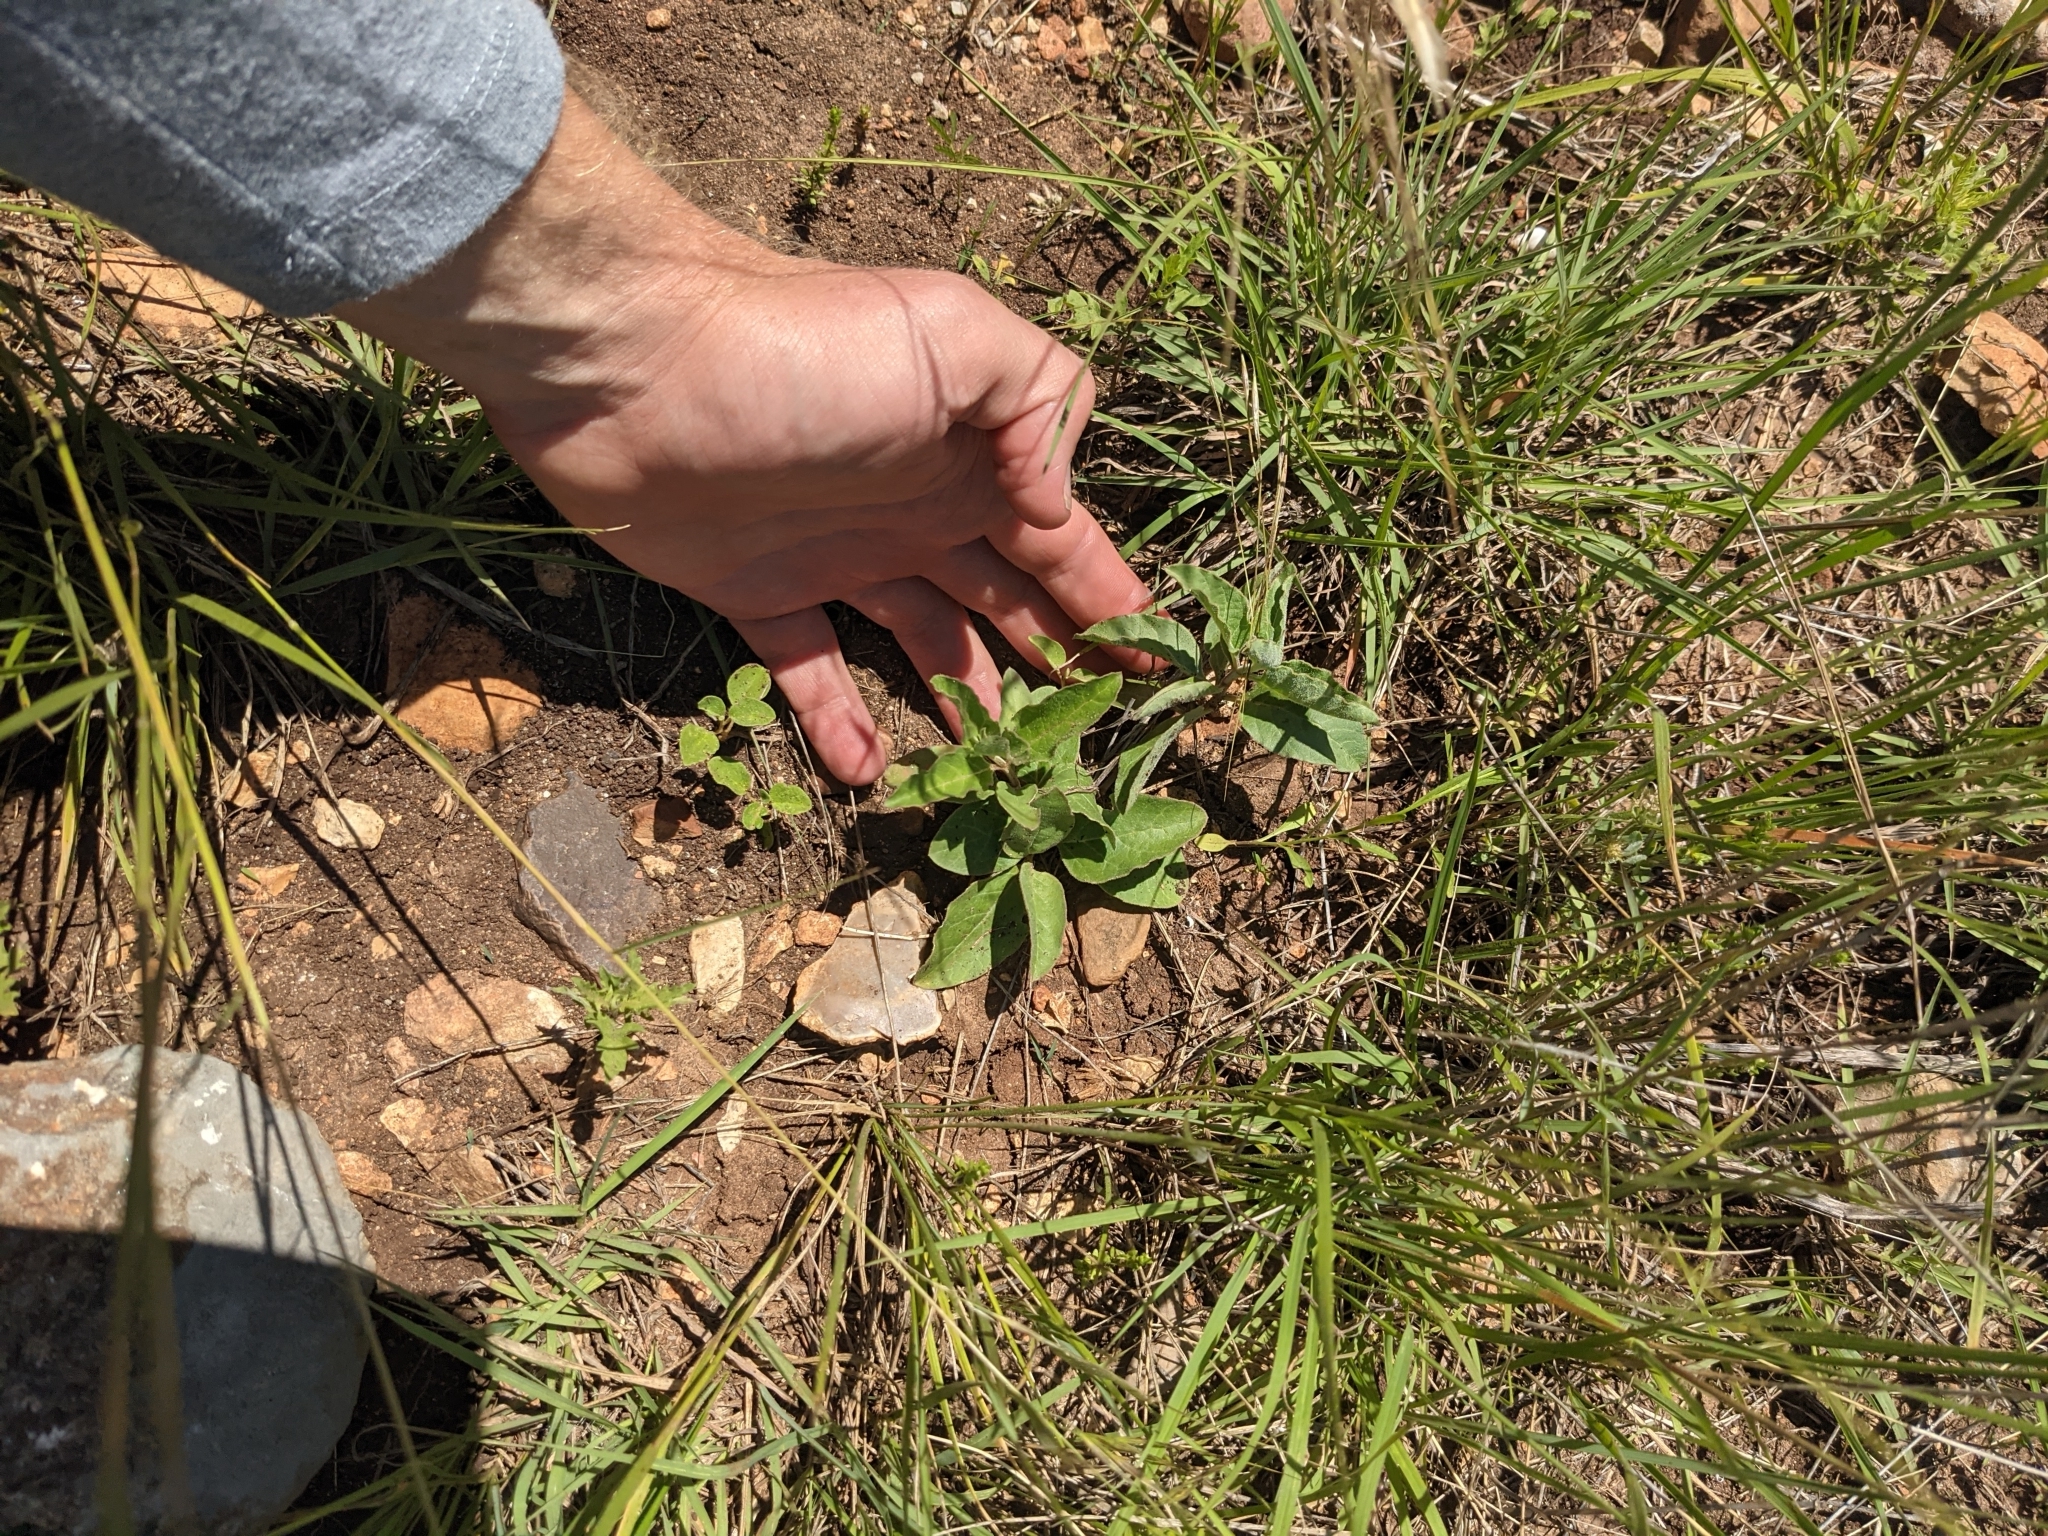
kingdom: Plantae
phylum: Tracheophyta
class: Magnoliopsida
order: Gentianales
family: Apocynaceae
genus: Asclepias
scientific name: Asclepias oenotheroides
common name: Zizotes milkweed
